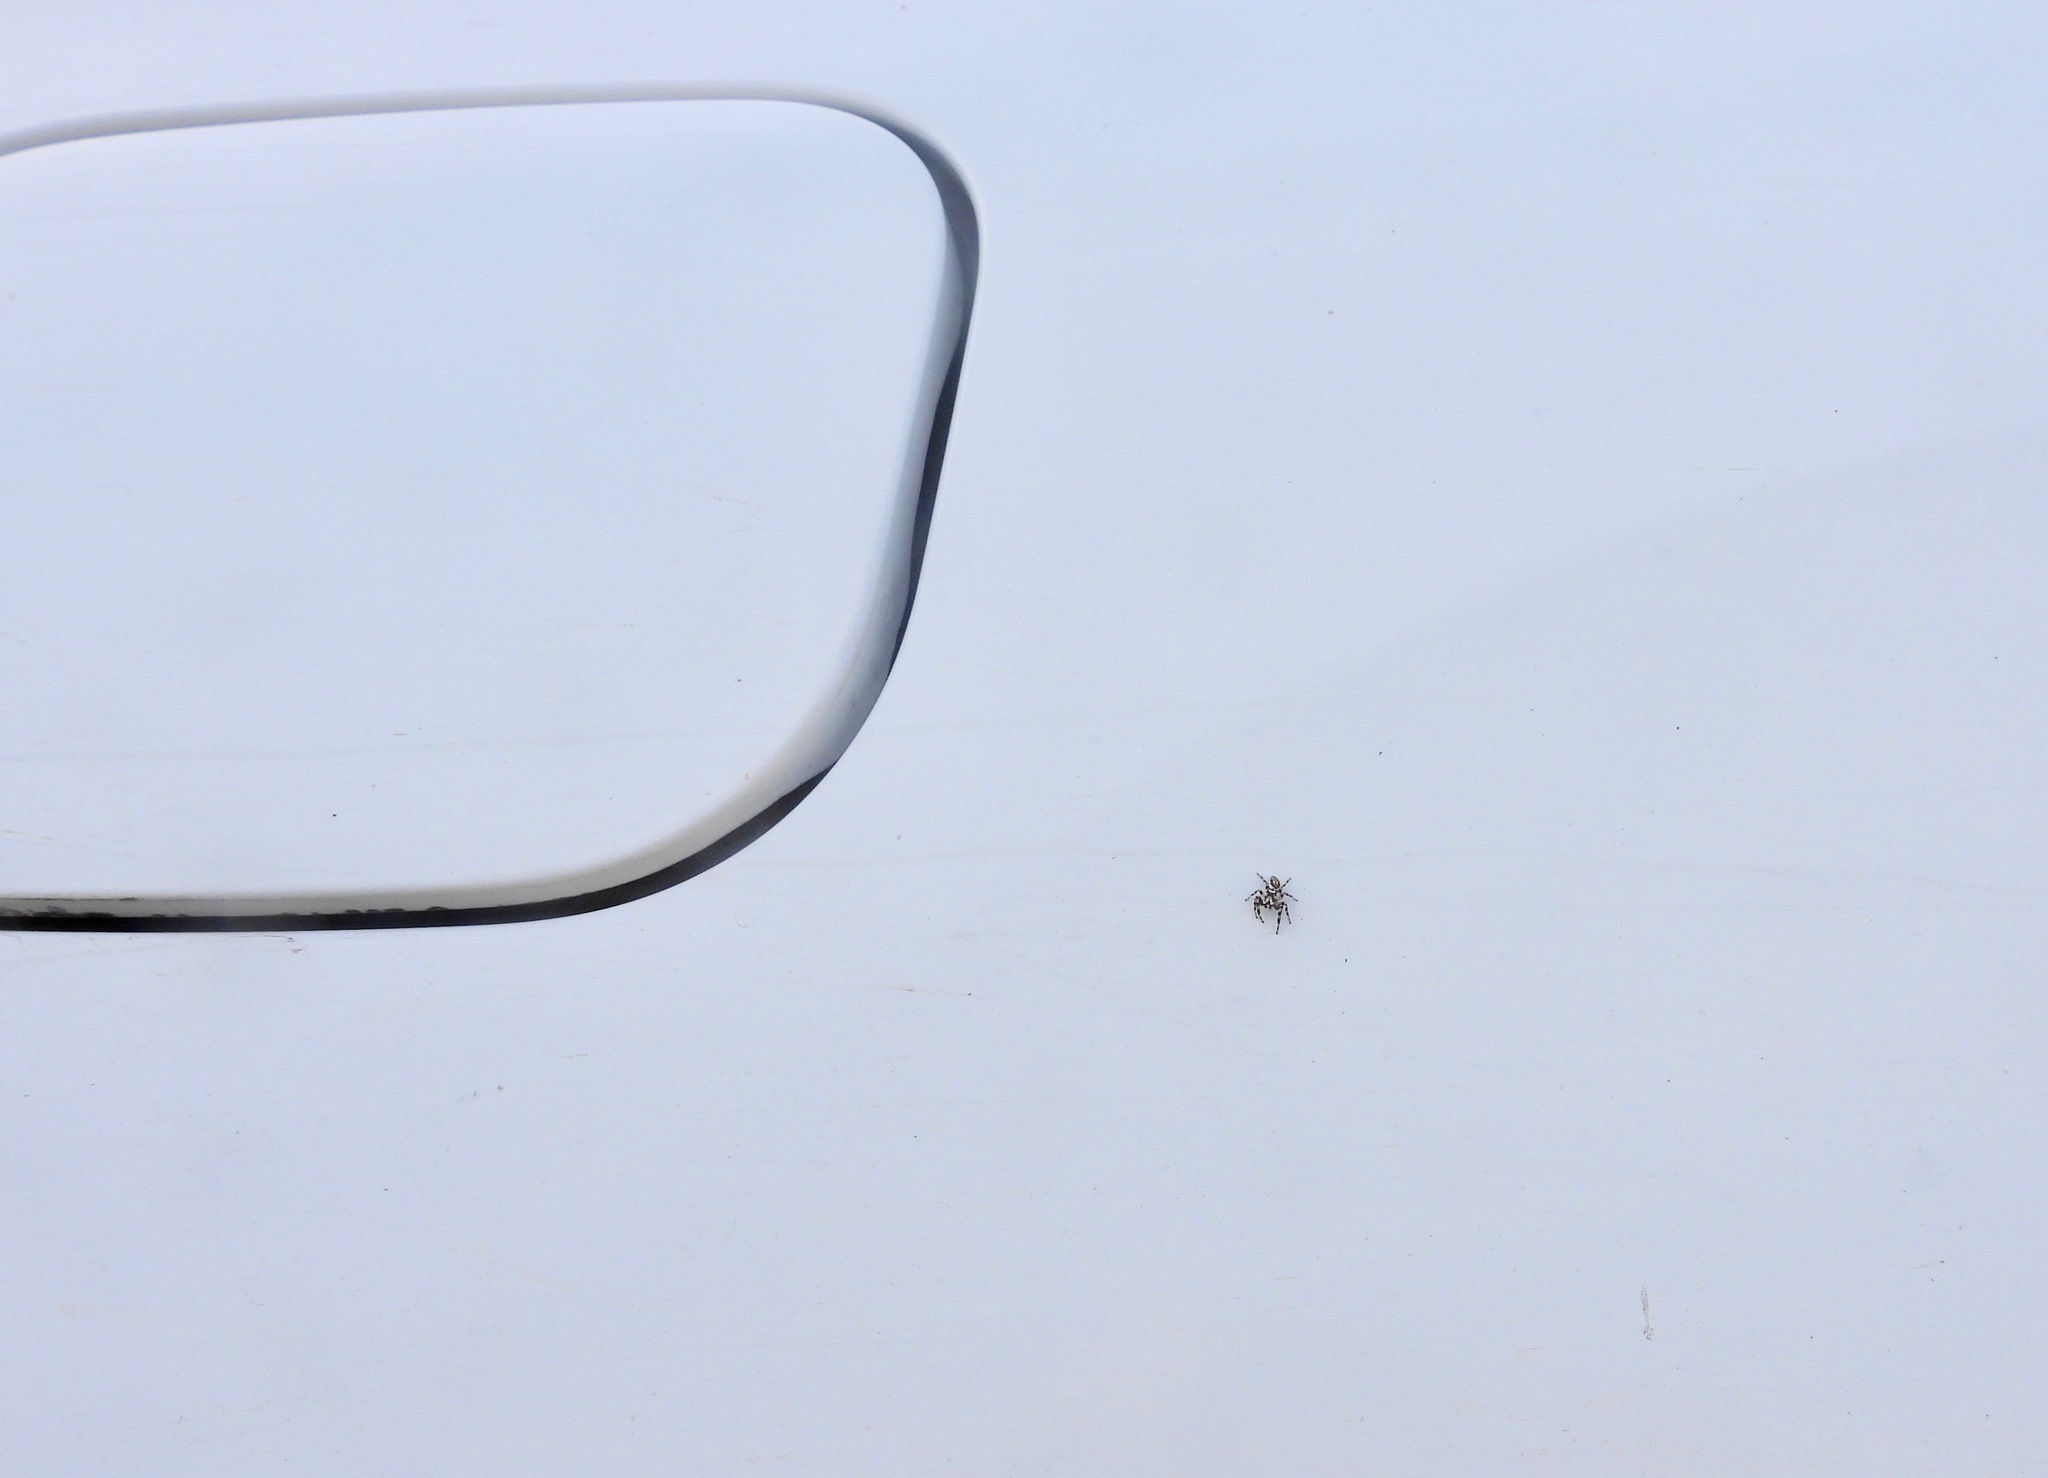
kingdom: Animalia
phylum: Arthropoda
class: Arachnida
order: Araneae
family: Salticidae
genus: Metaphidippus
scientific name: Metaphidippus chera
